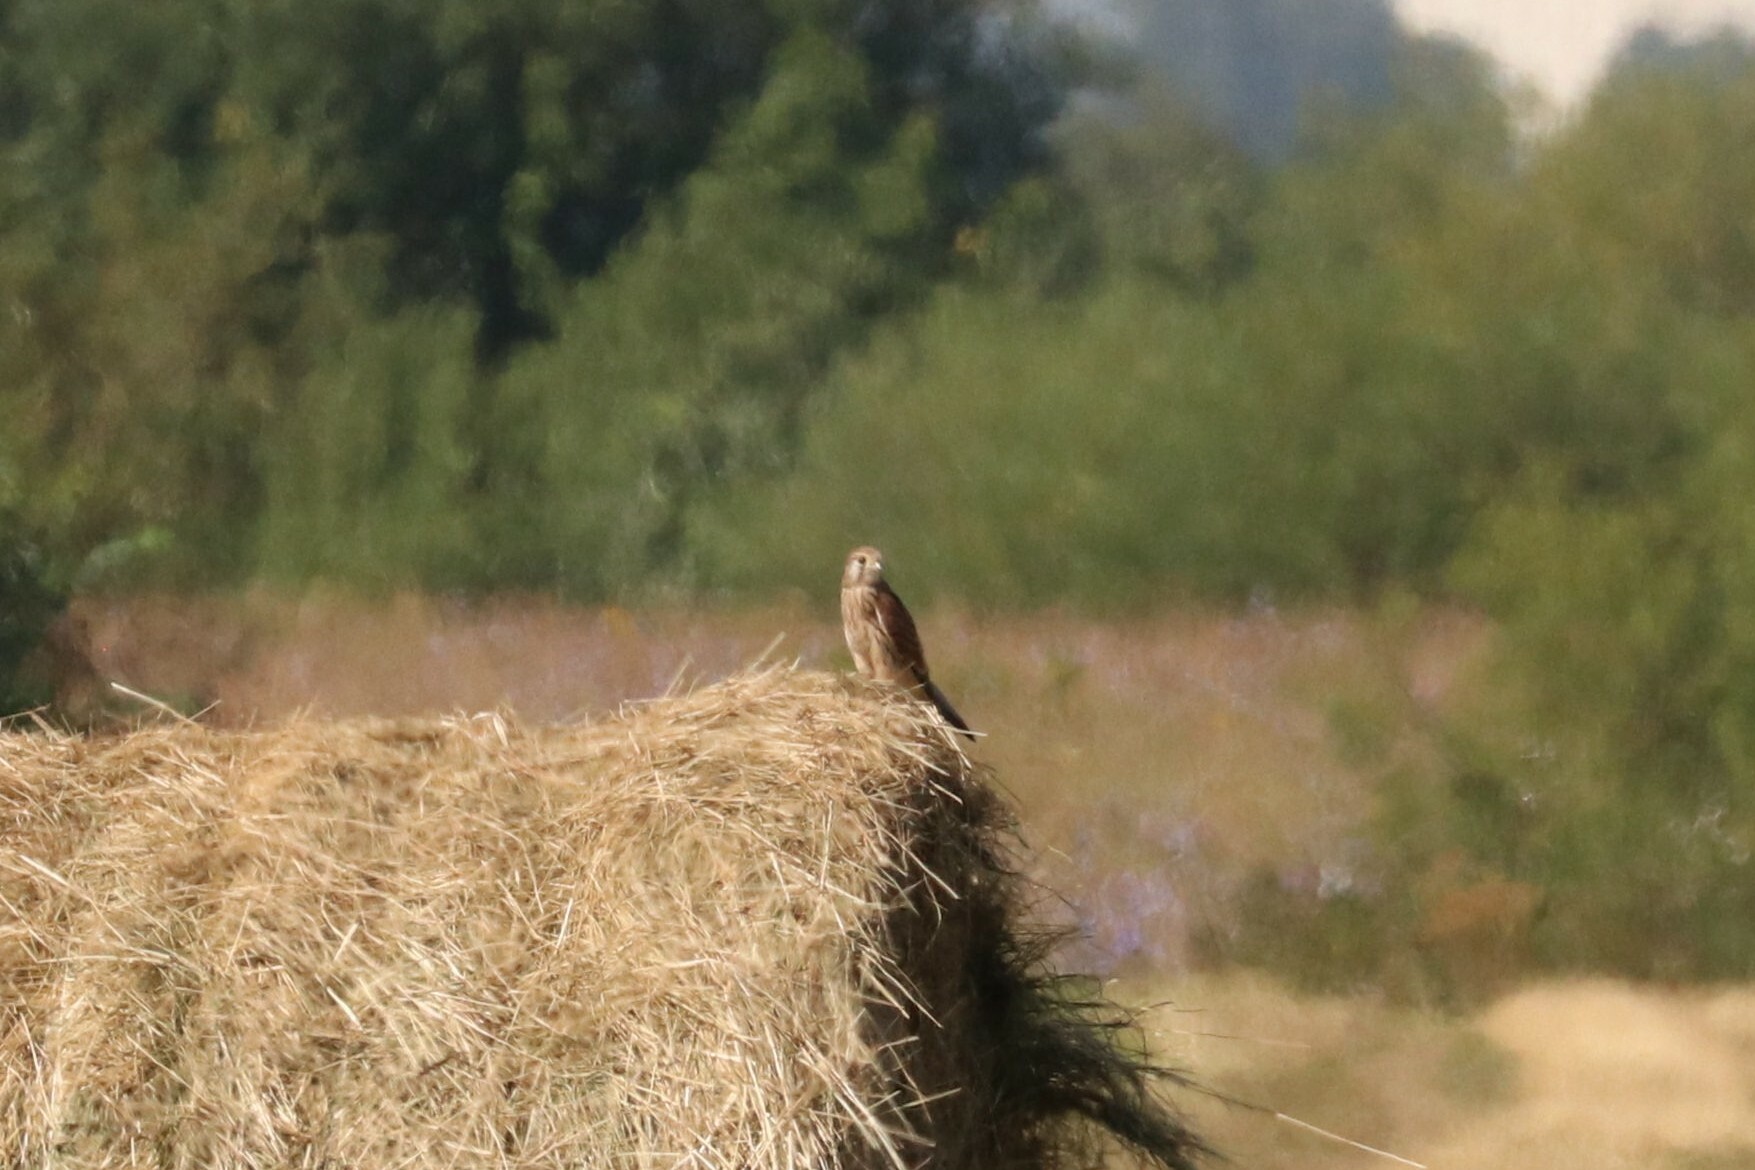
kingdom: Animalia
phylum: Chordata
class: Aves
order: Falconiformes
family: Falconidae
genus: Falco
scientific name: Falco tinnunculus
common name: Common kestrel
